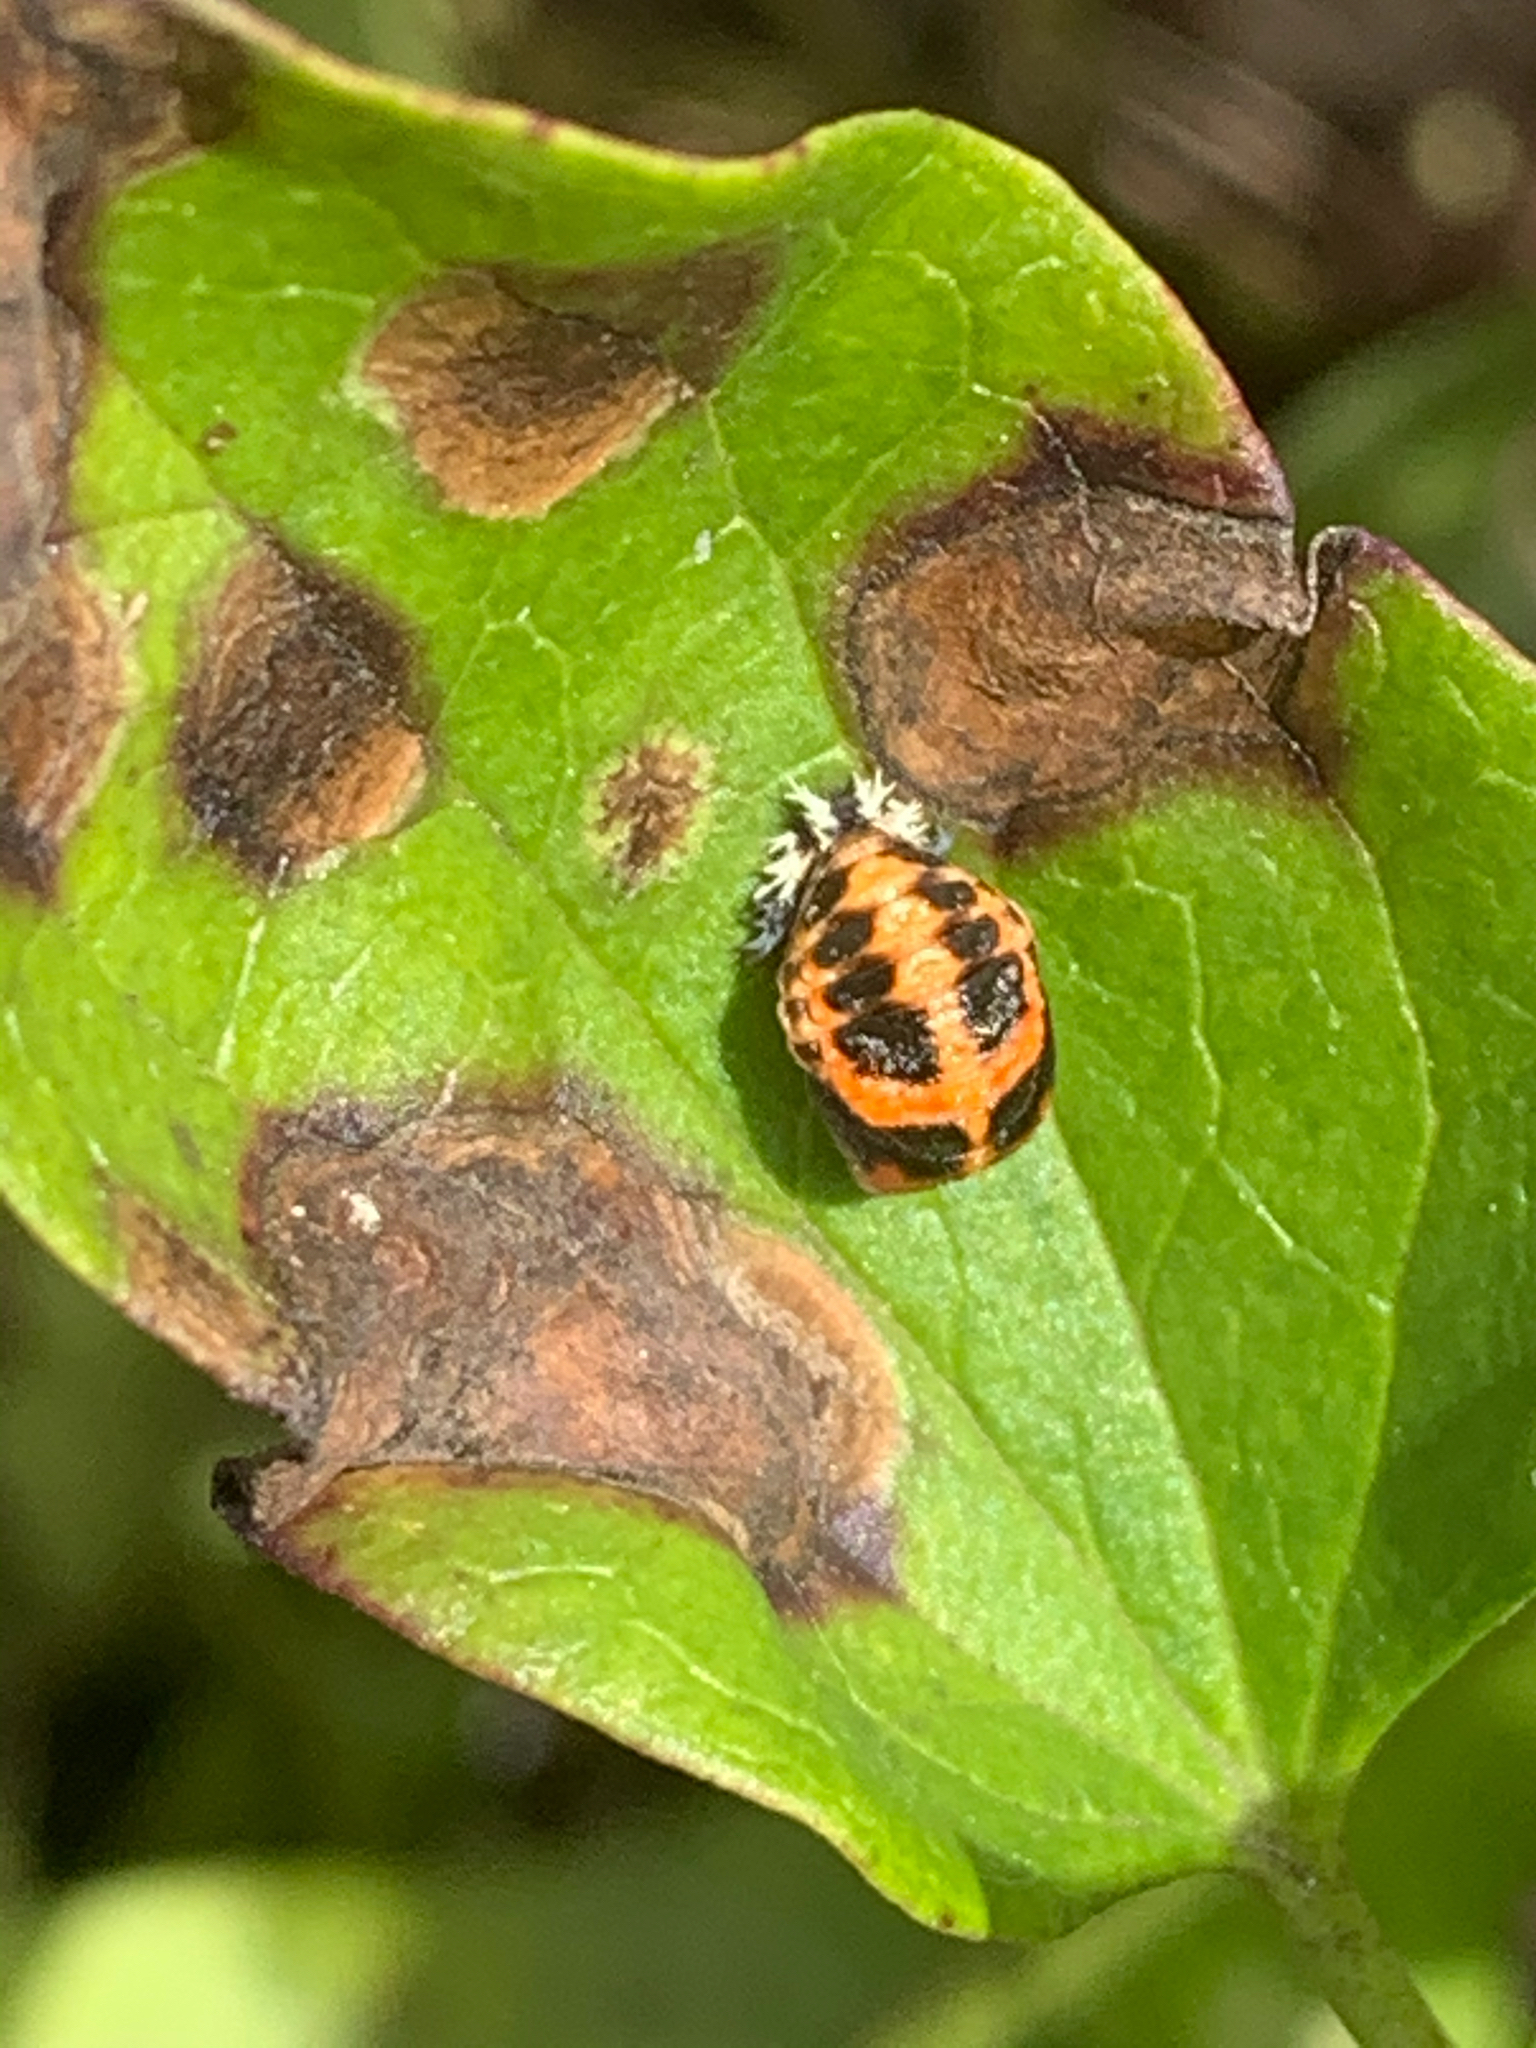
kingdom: Animalia
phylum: Arthropoda
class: Insecta
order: Coleoptera
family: Coccinellidae
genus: Harmonia
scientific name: Harmonia axyridis
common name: Harlequin ladybird
